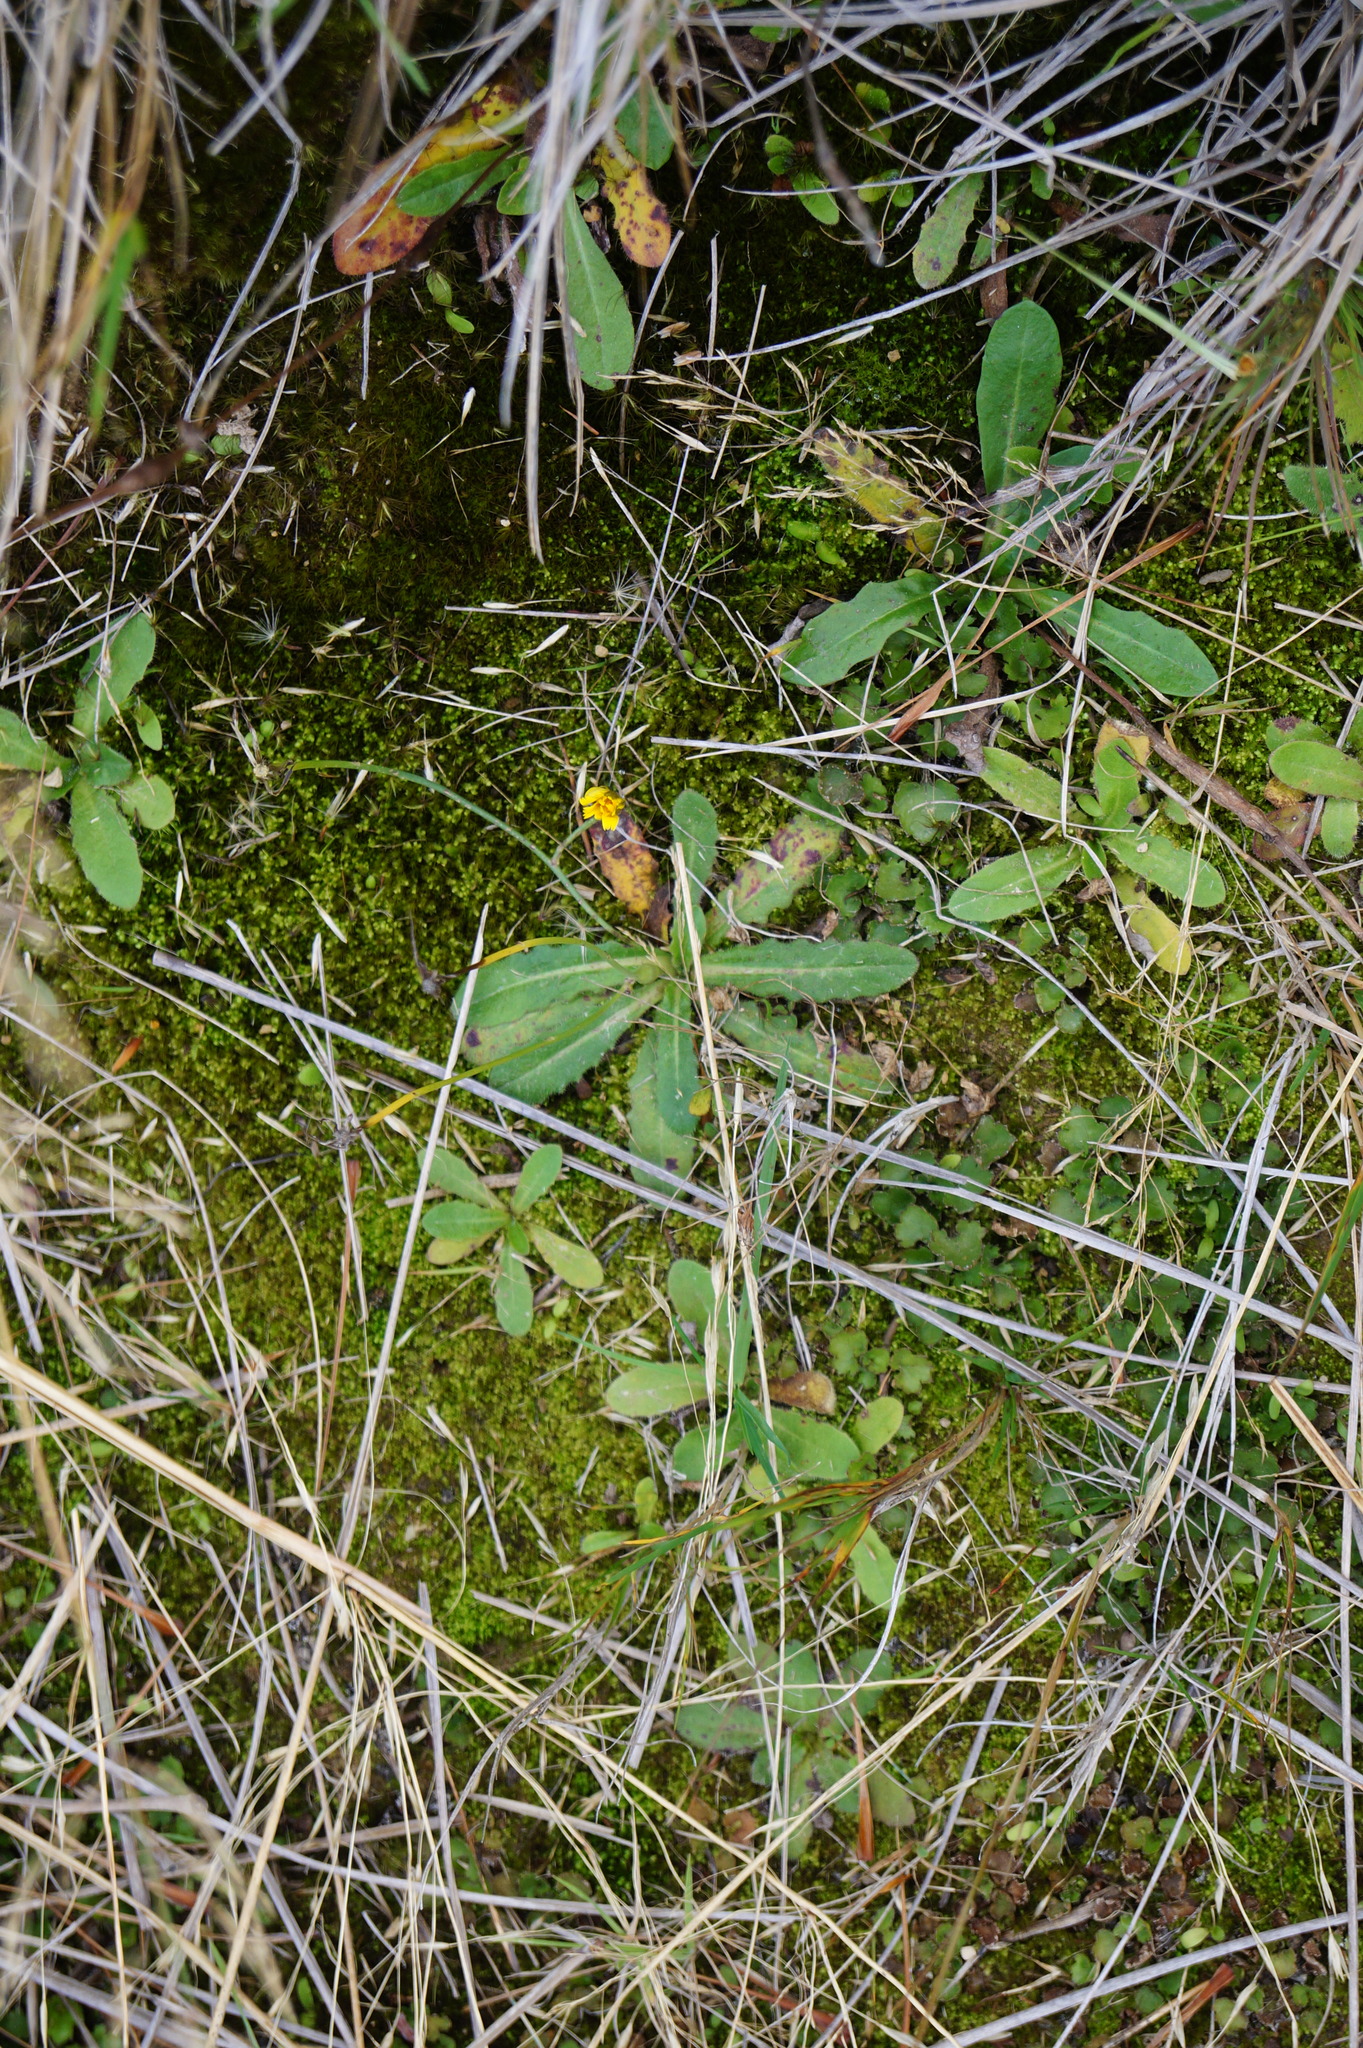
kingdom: Plantae
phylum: Tracheophyta
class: Magnoliopsida
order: Asterales
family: Asteraceae
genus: Hypochaeris
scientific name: Hypochaeris radicata
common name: Flatweed
